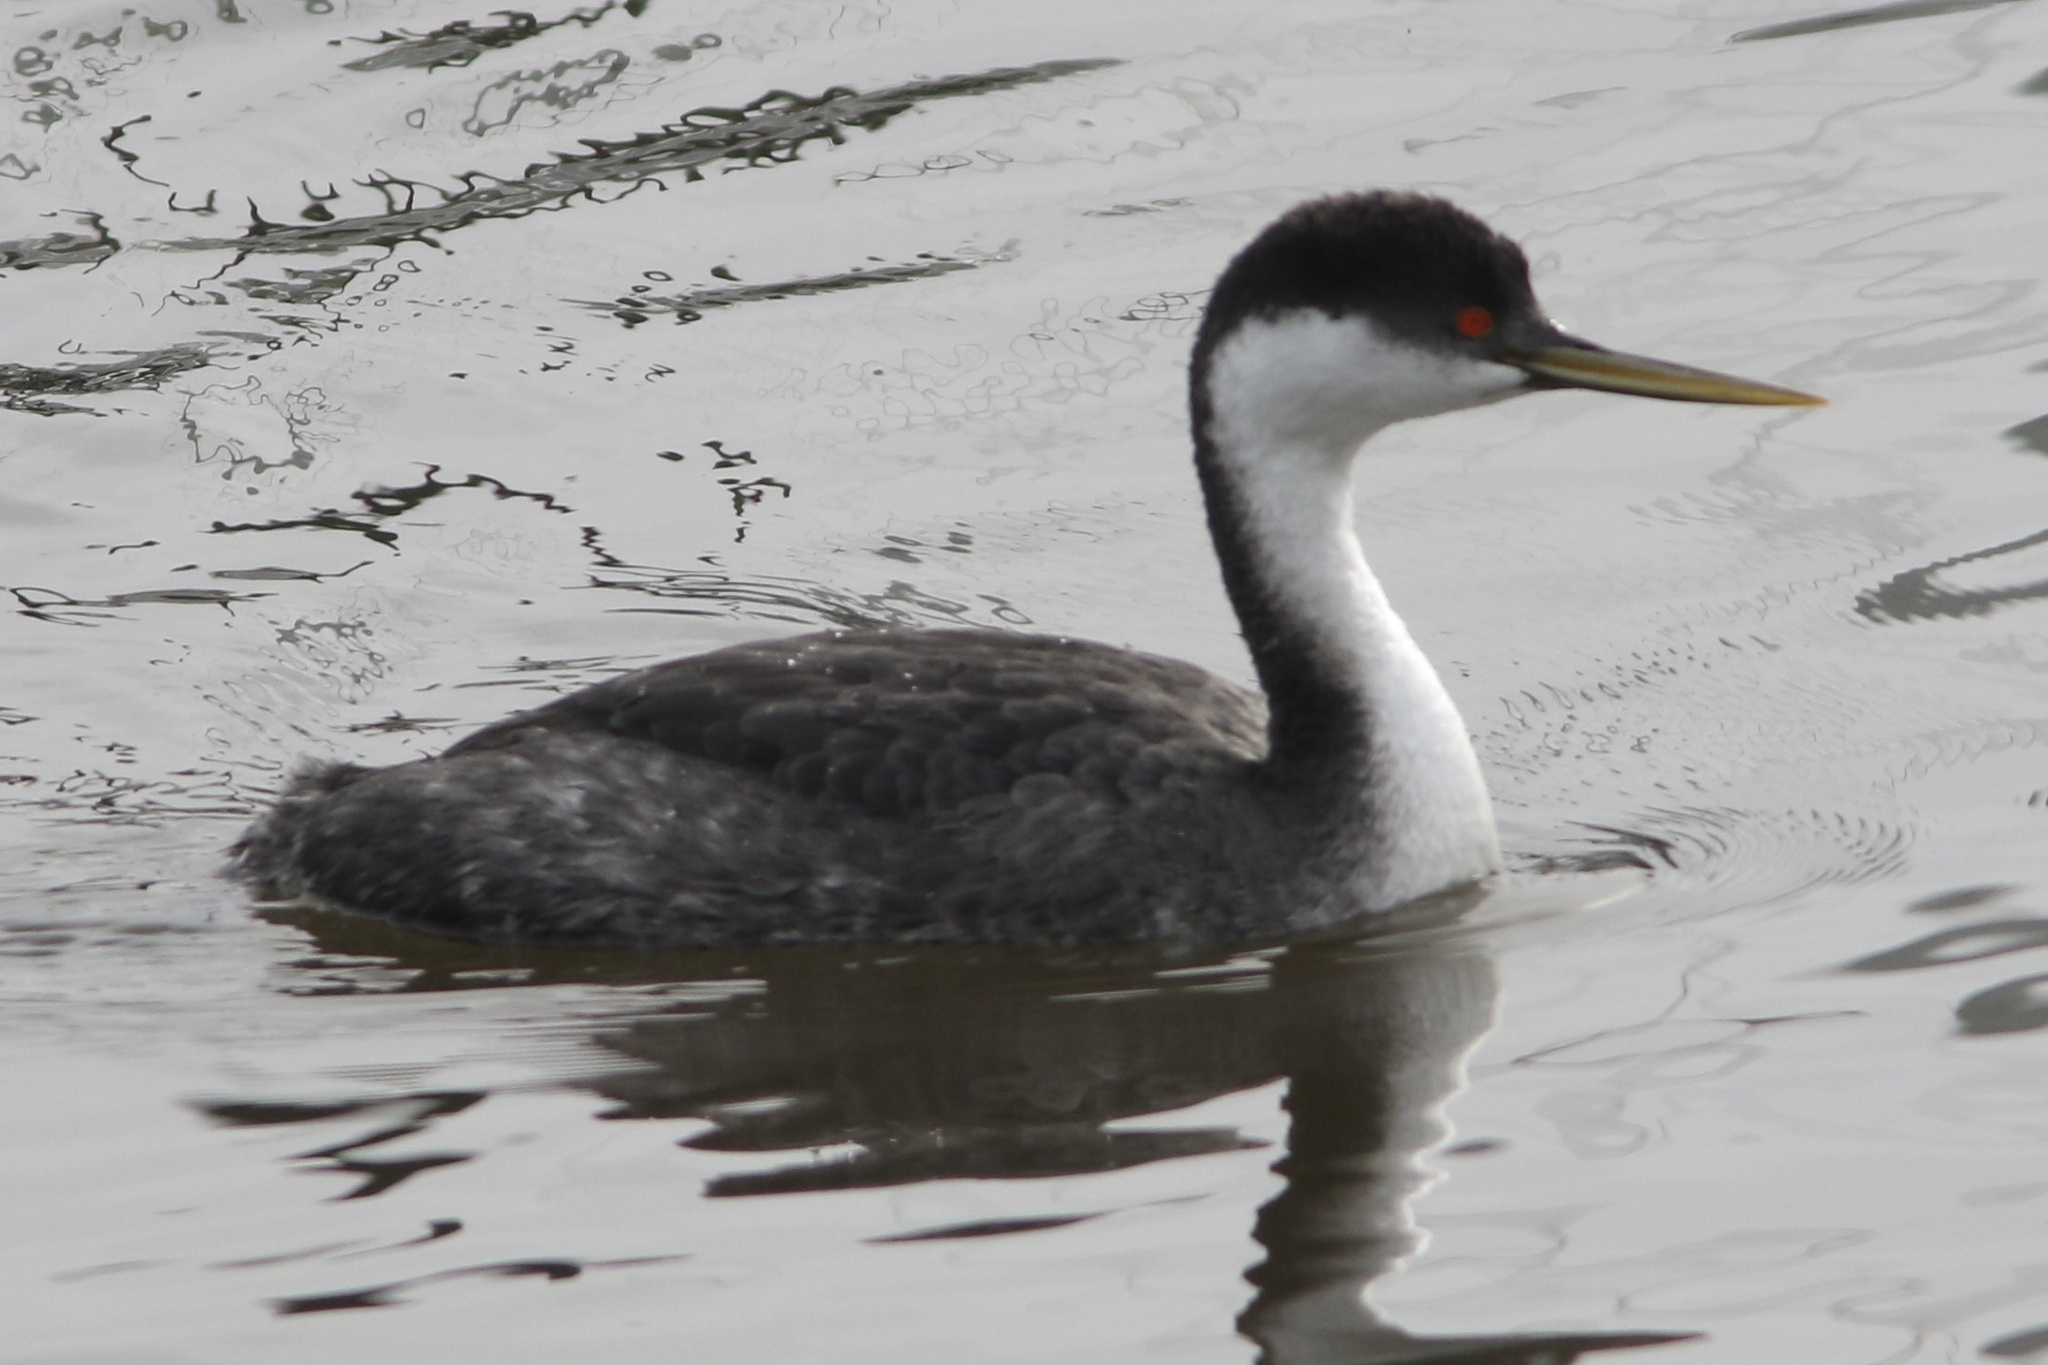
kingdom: Animalia
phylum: Chordata
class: Aves
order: Podicipediformes
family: Podicipedidae
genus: Aechmophorus
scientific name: Aechmophorus occidentalis
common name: Western grebe
